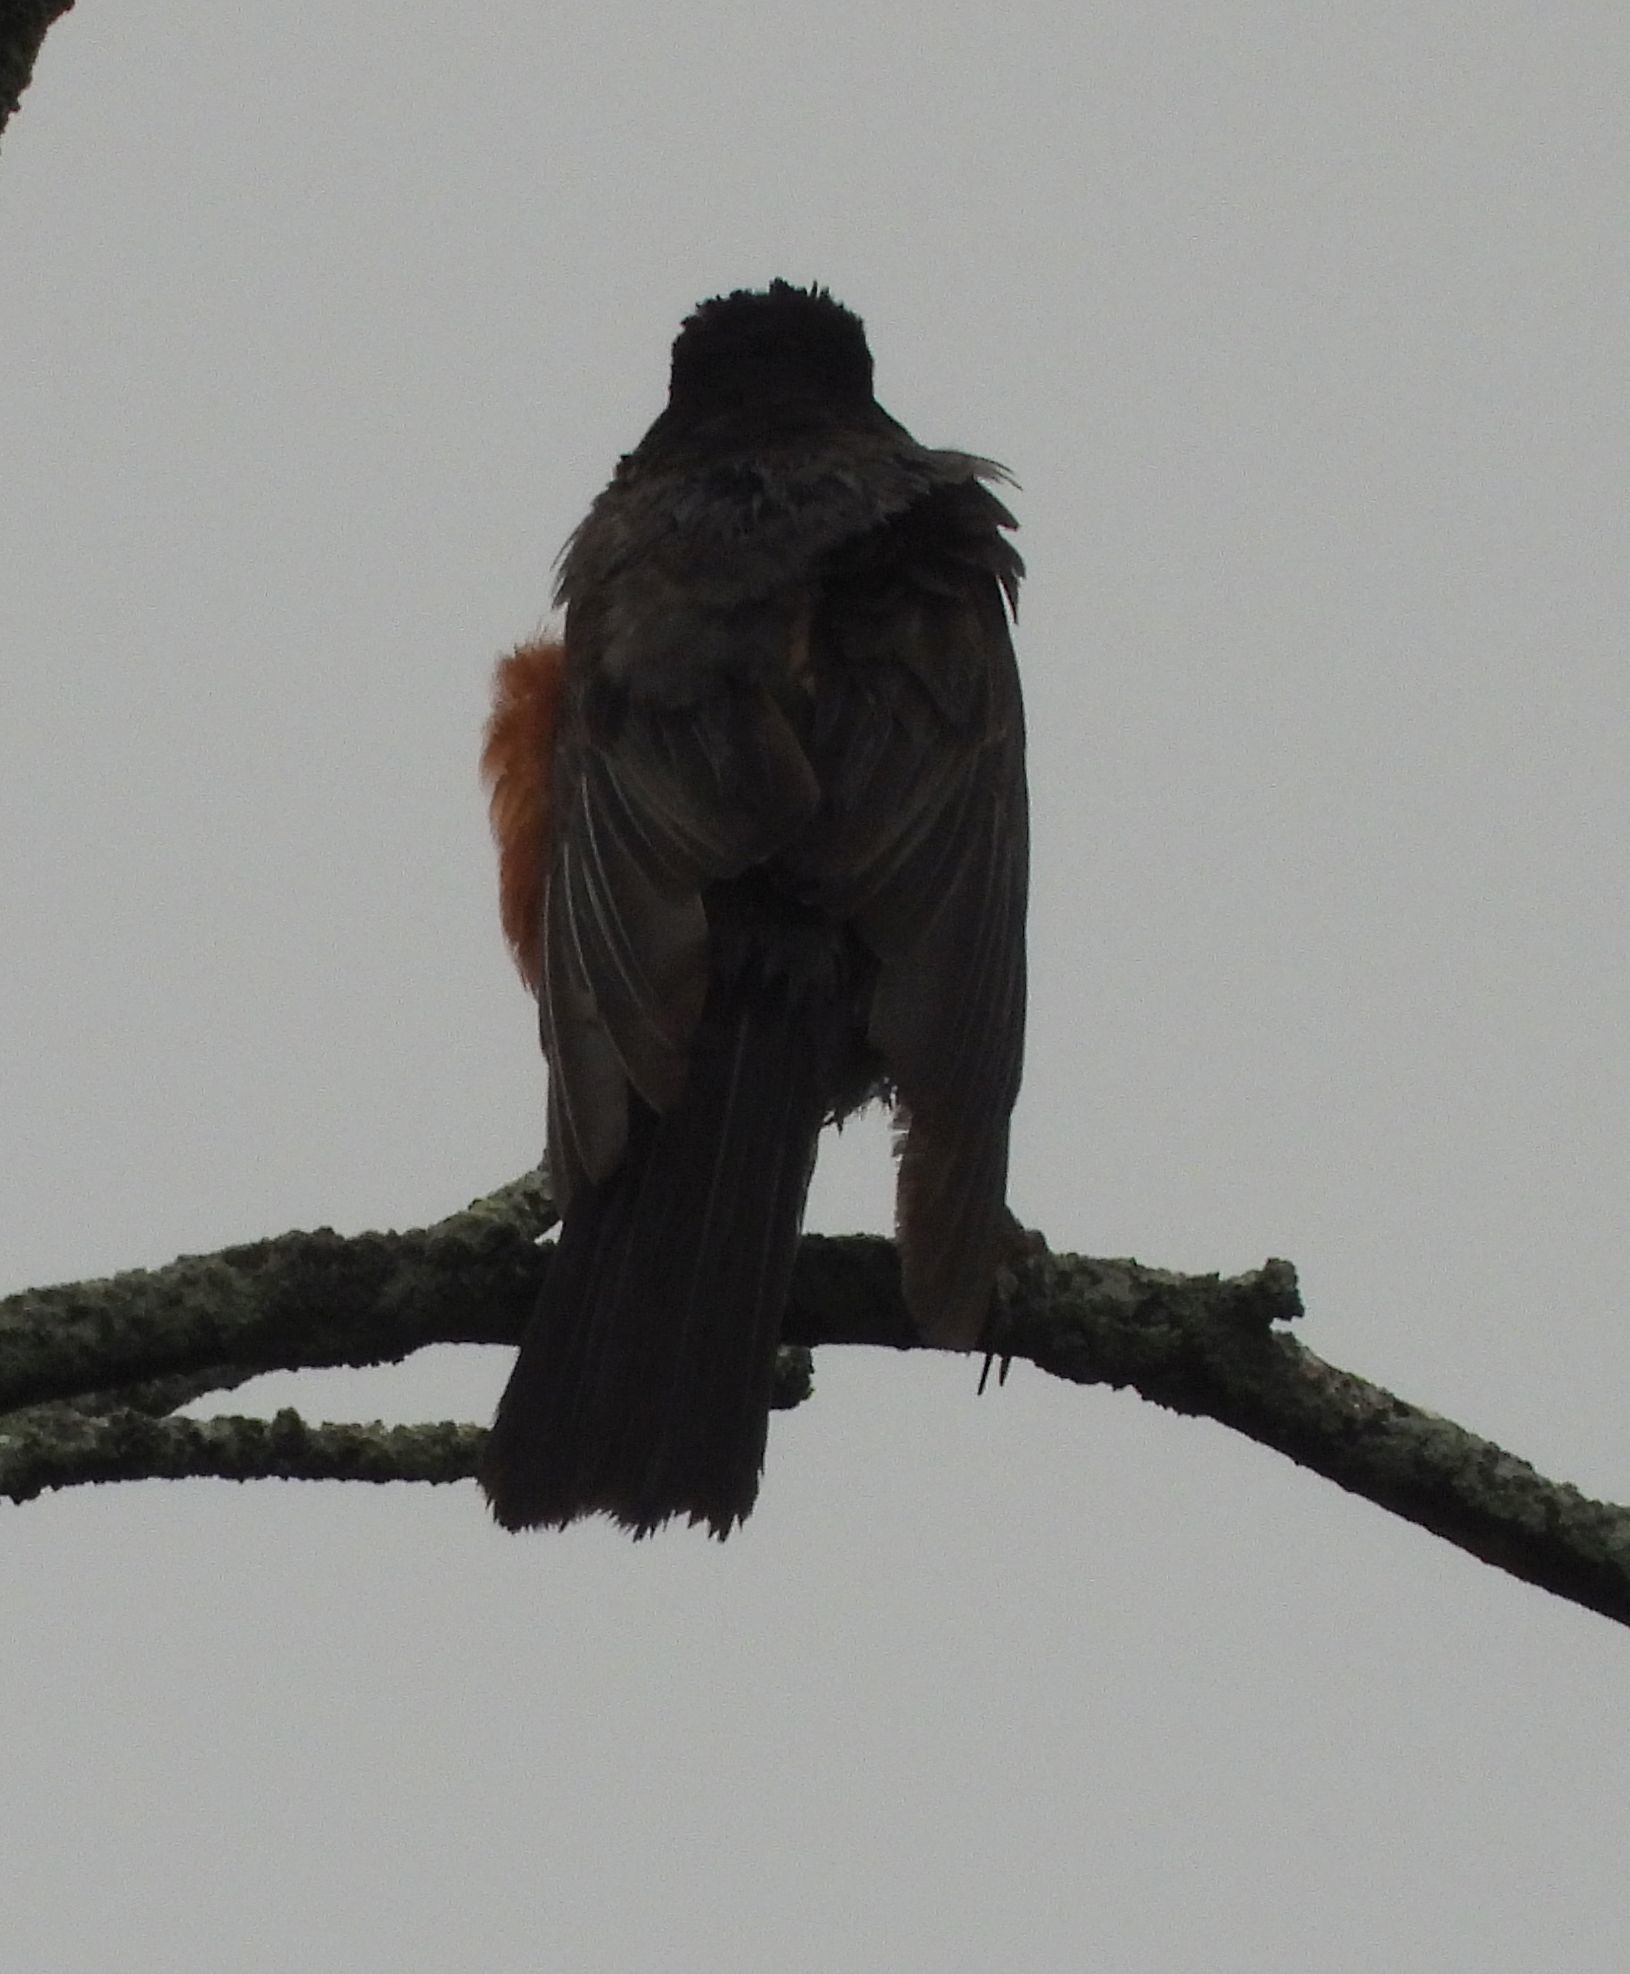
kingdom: Animalia
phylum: Chordata
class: Aves
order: Passeriformes
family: Turdidae
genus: Turdus
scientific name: Turdus migratorius
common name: American robin
